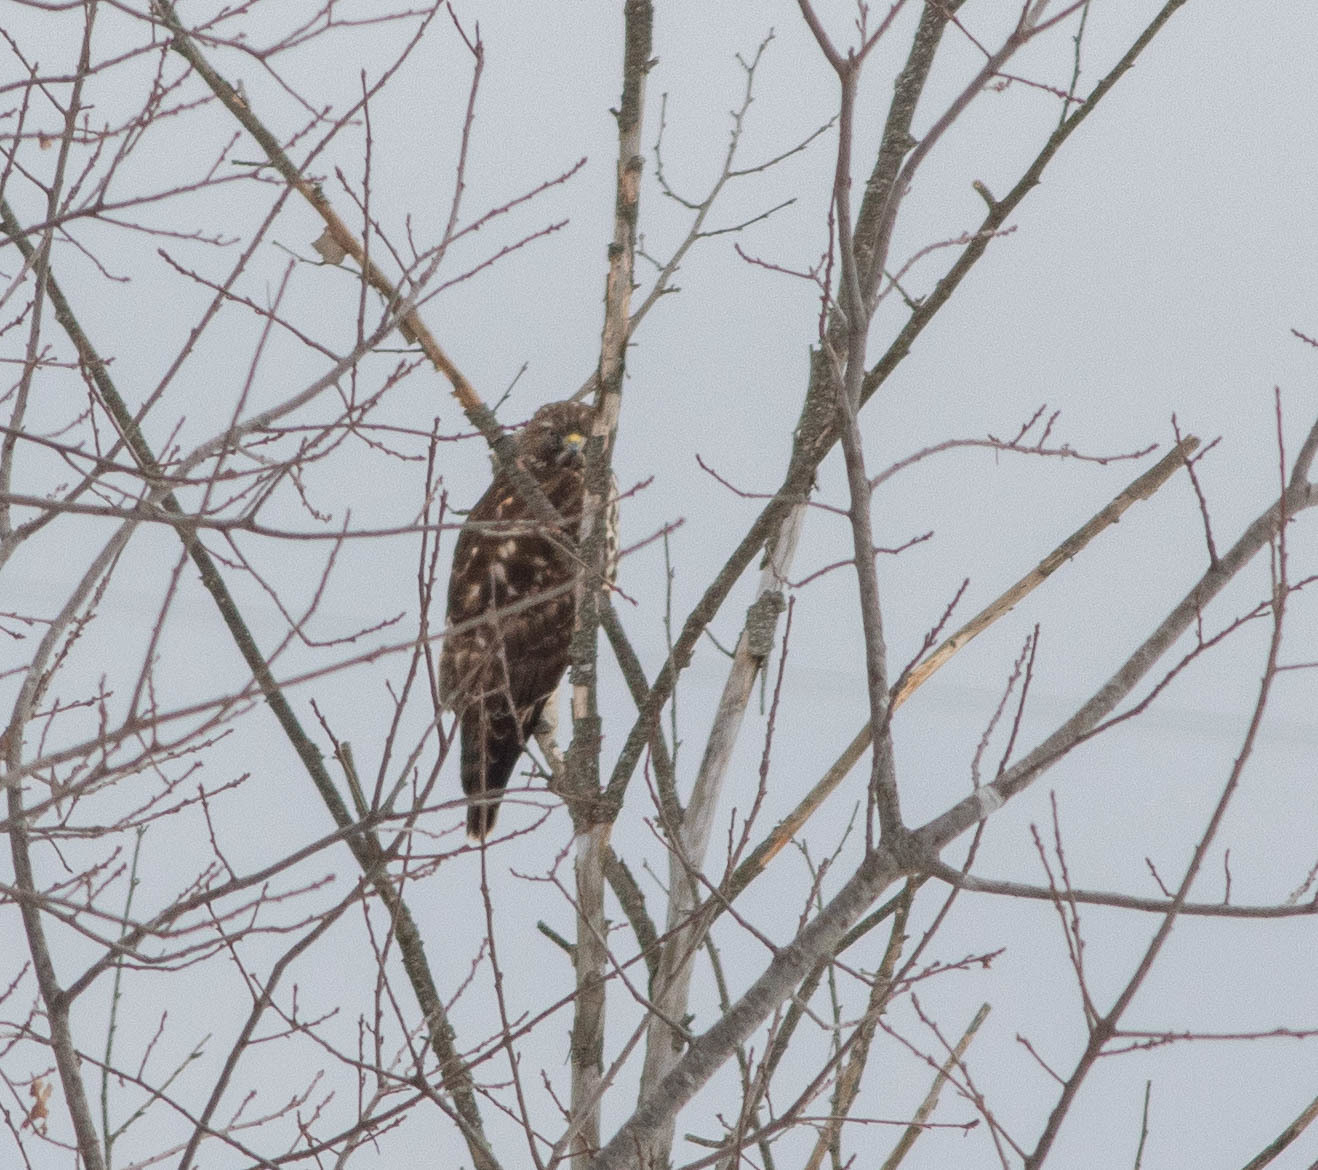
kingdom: Animalia
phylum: Chordata
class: Aves
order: Accipitriformes
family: Accipitridae
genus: Buteo
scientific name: Buteo lineatus
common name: Red-shouldered hawk
